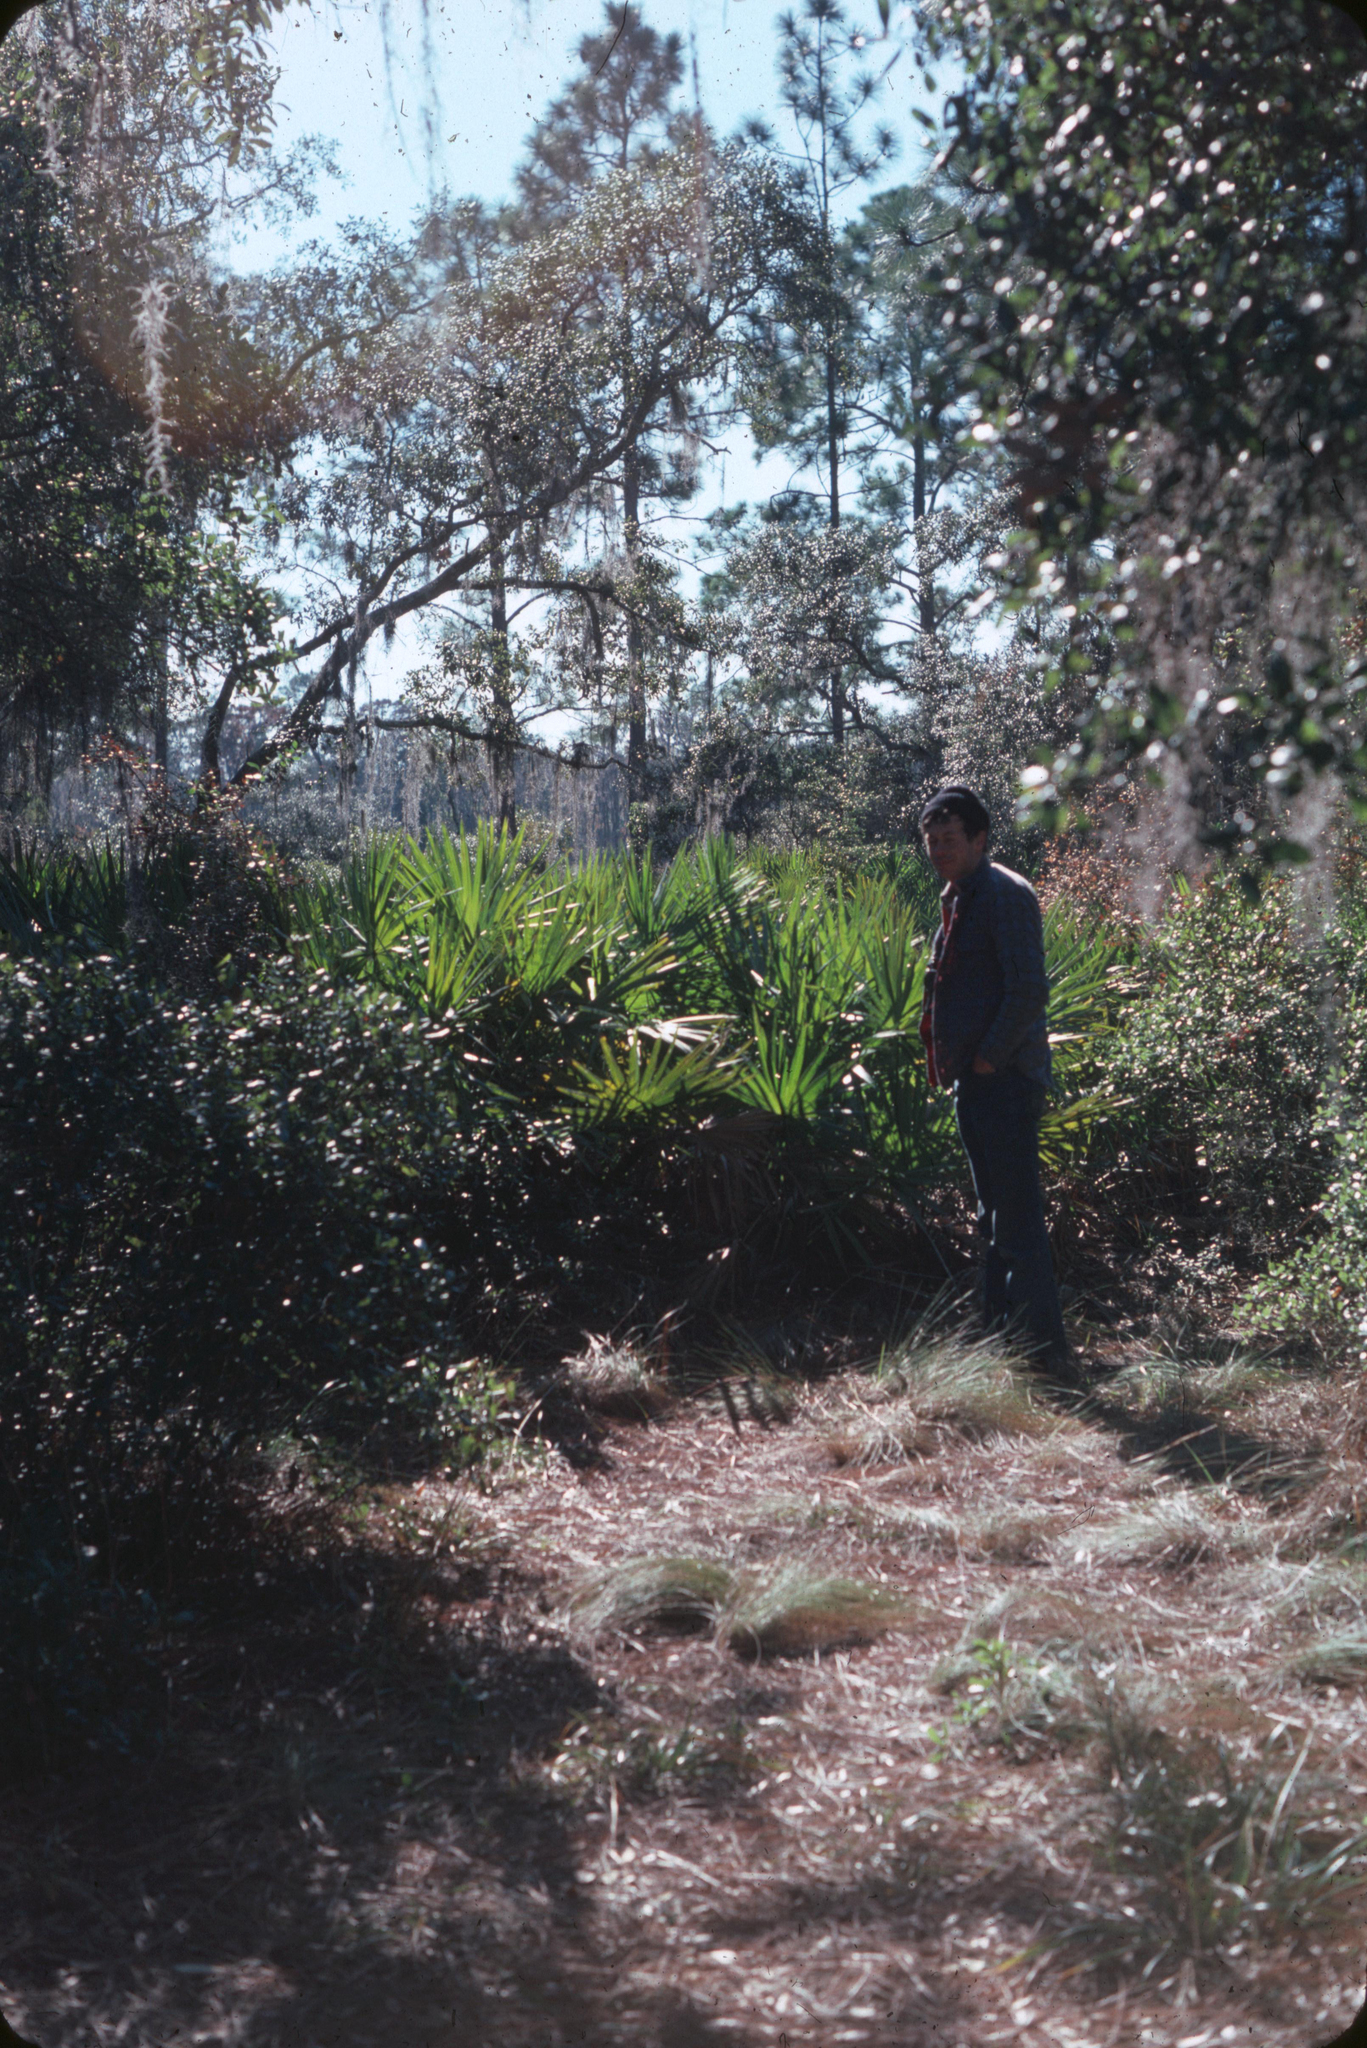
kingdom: Plantae
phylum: Tracheophyta
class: Liliopsida
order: Arecales
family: Arecaceae
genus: Serenoa
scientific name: Serenoa repens
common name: Saw-palmetto
